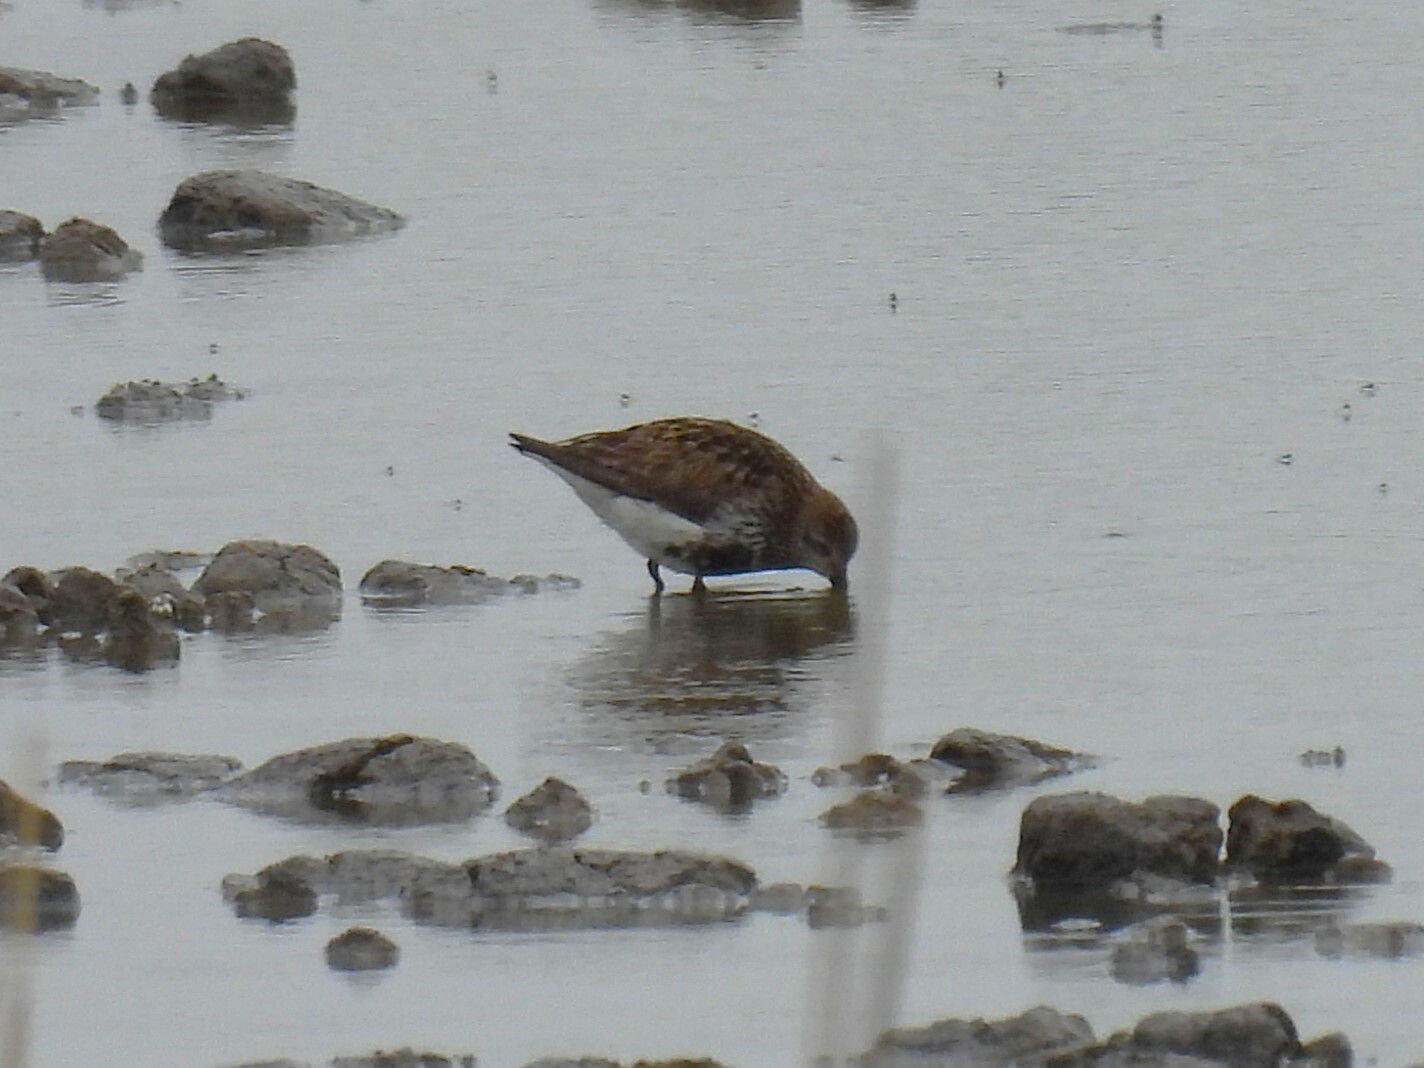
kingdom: Animalia
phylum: Chordata
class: Aves
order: Charadriiformes
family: Scolopacidae
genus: Calidris
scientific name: Calidris alpina
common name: Dunlin
